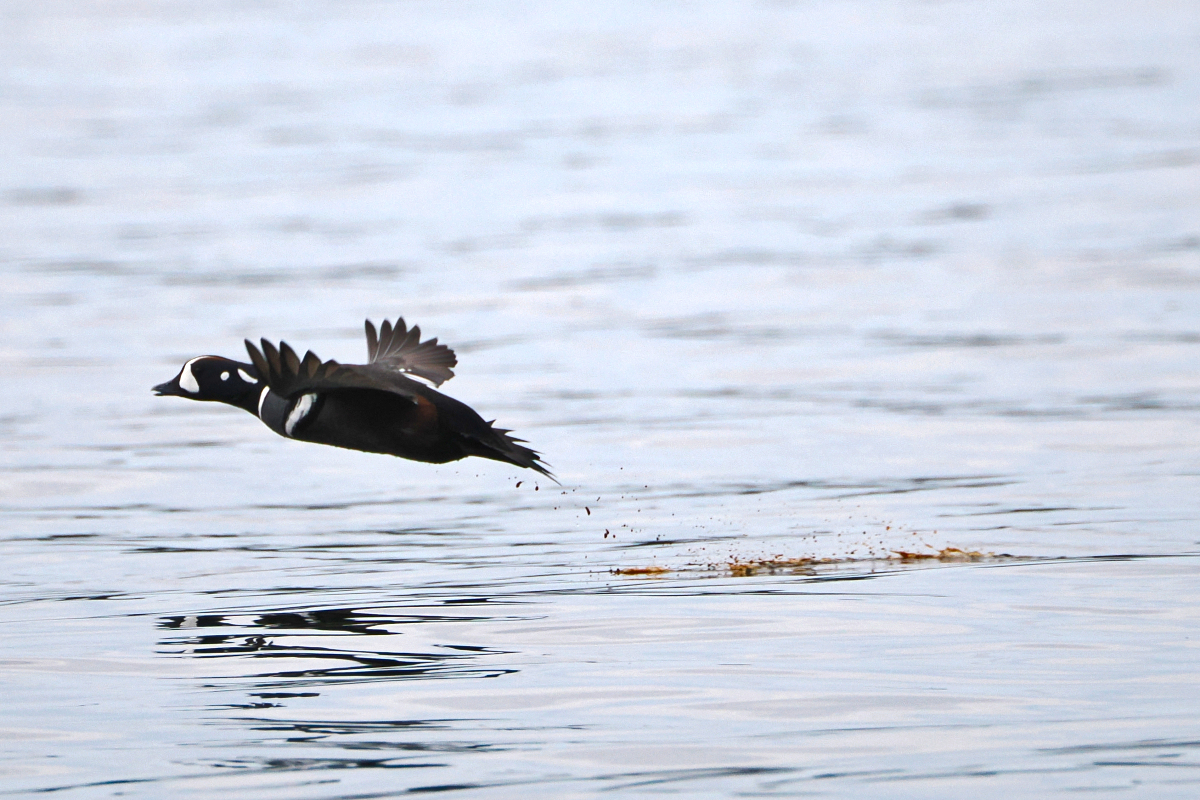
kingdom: Animalia
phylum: Chordata
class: Aves
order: Anseriformes
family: Anatidae
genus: Histrionicus
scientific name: Histrionicus histrionicus
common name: Harlequin duck
